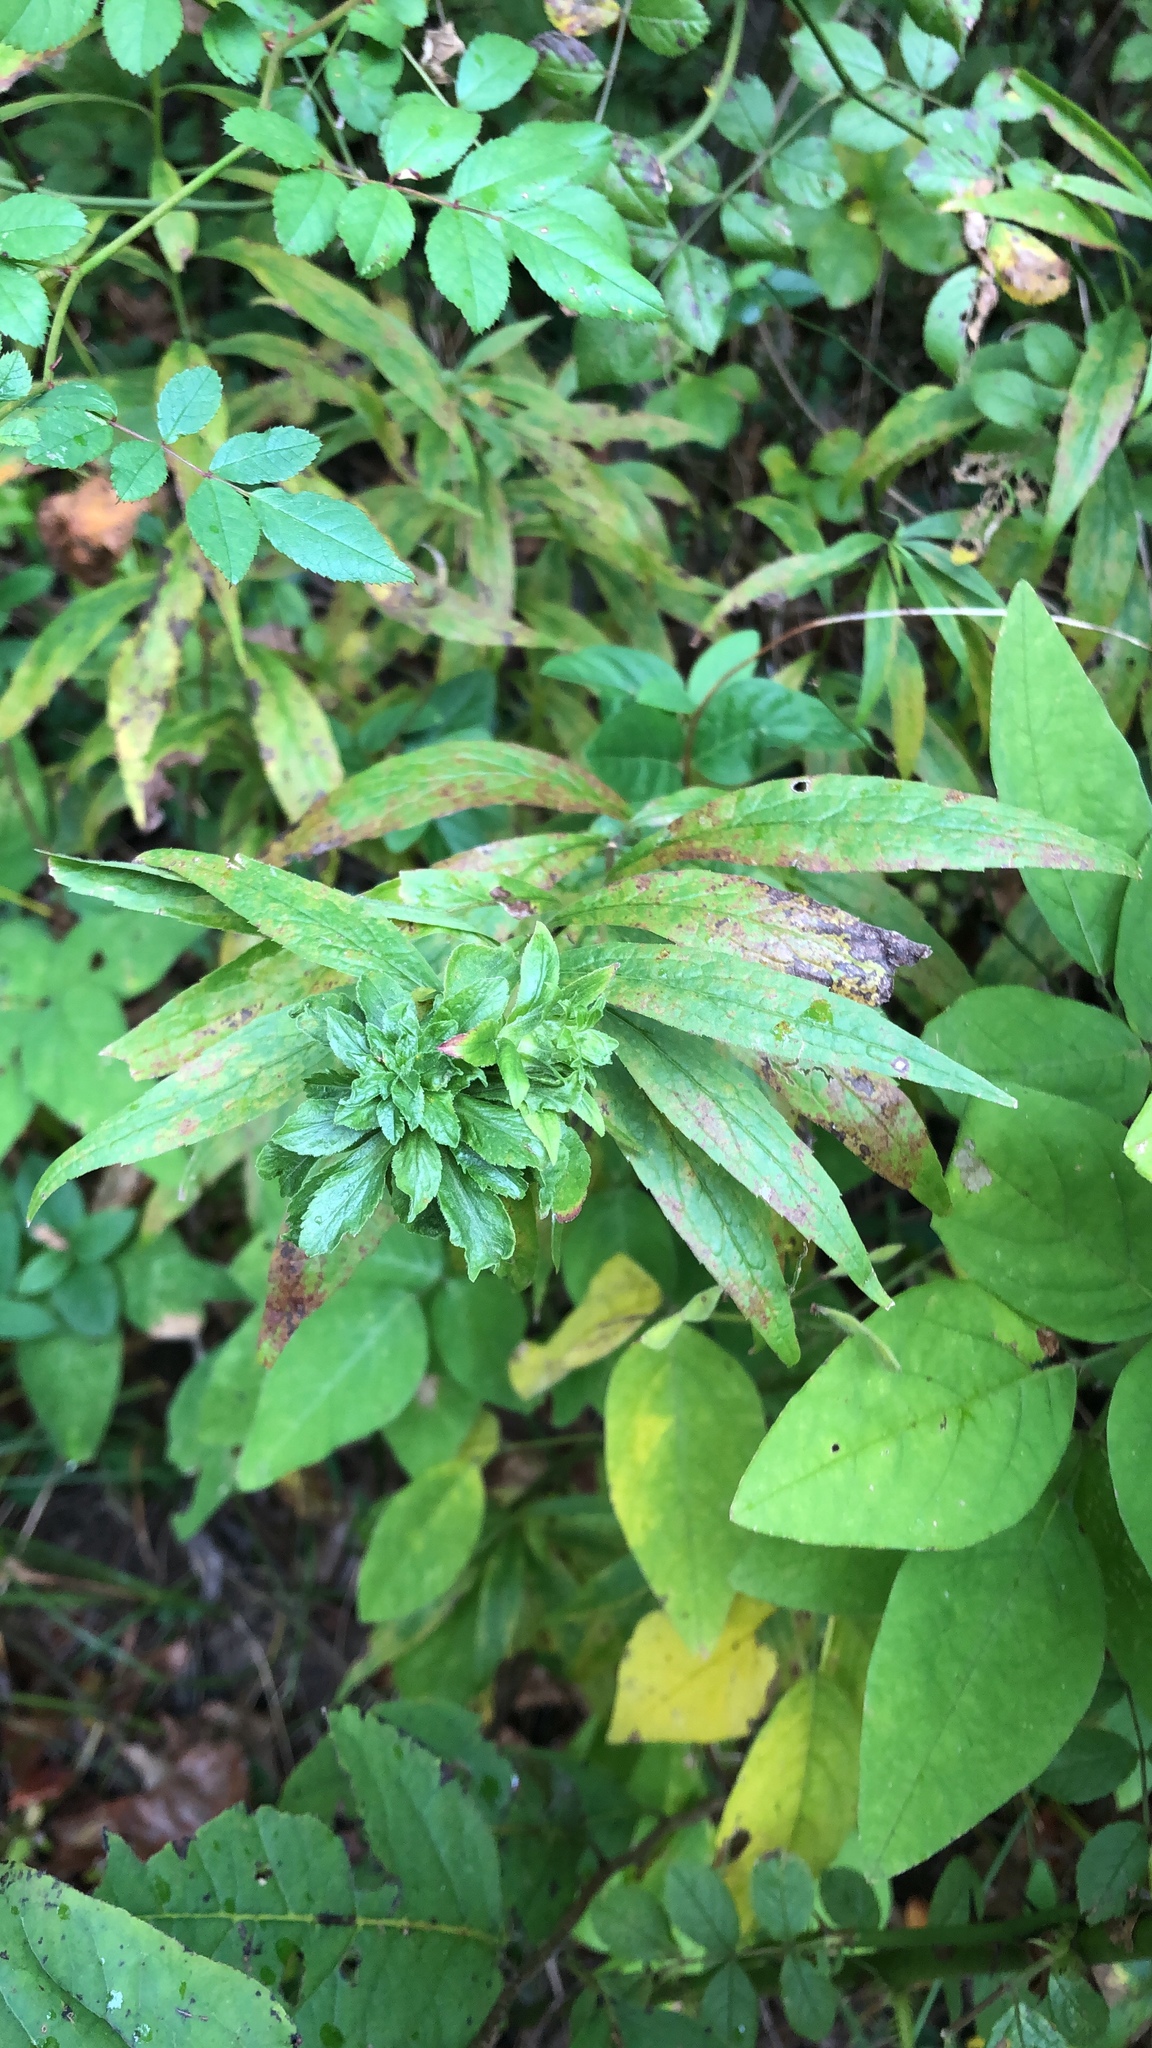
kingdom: Animalia
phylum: Arthropoda
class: Insecta
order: Diptera
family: Tephritidae
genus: Procecidochares
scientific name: Procecidochares atra
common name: Goldenrod brussels sprout gall fly
